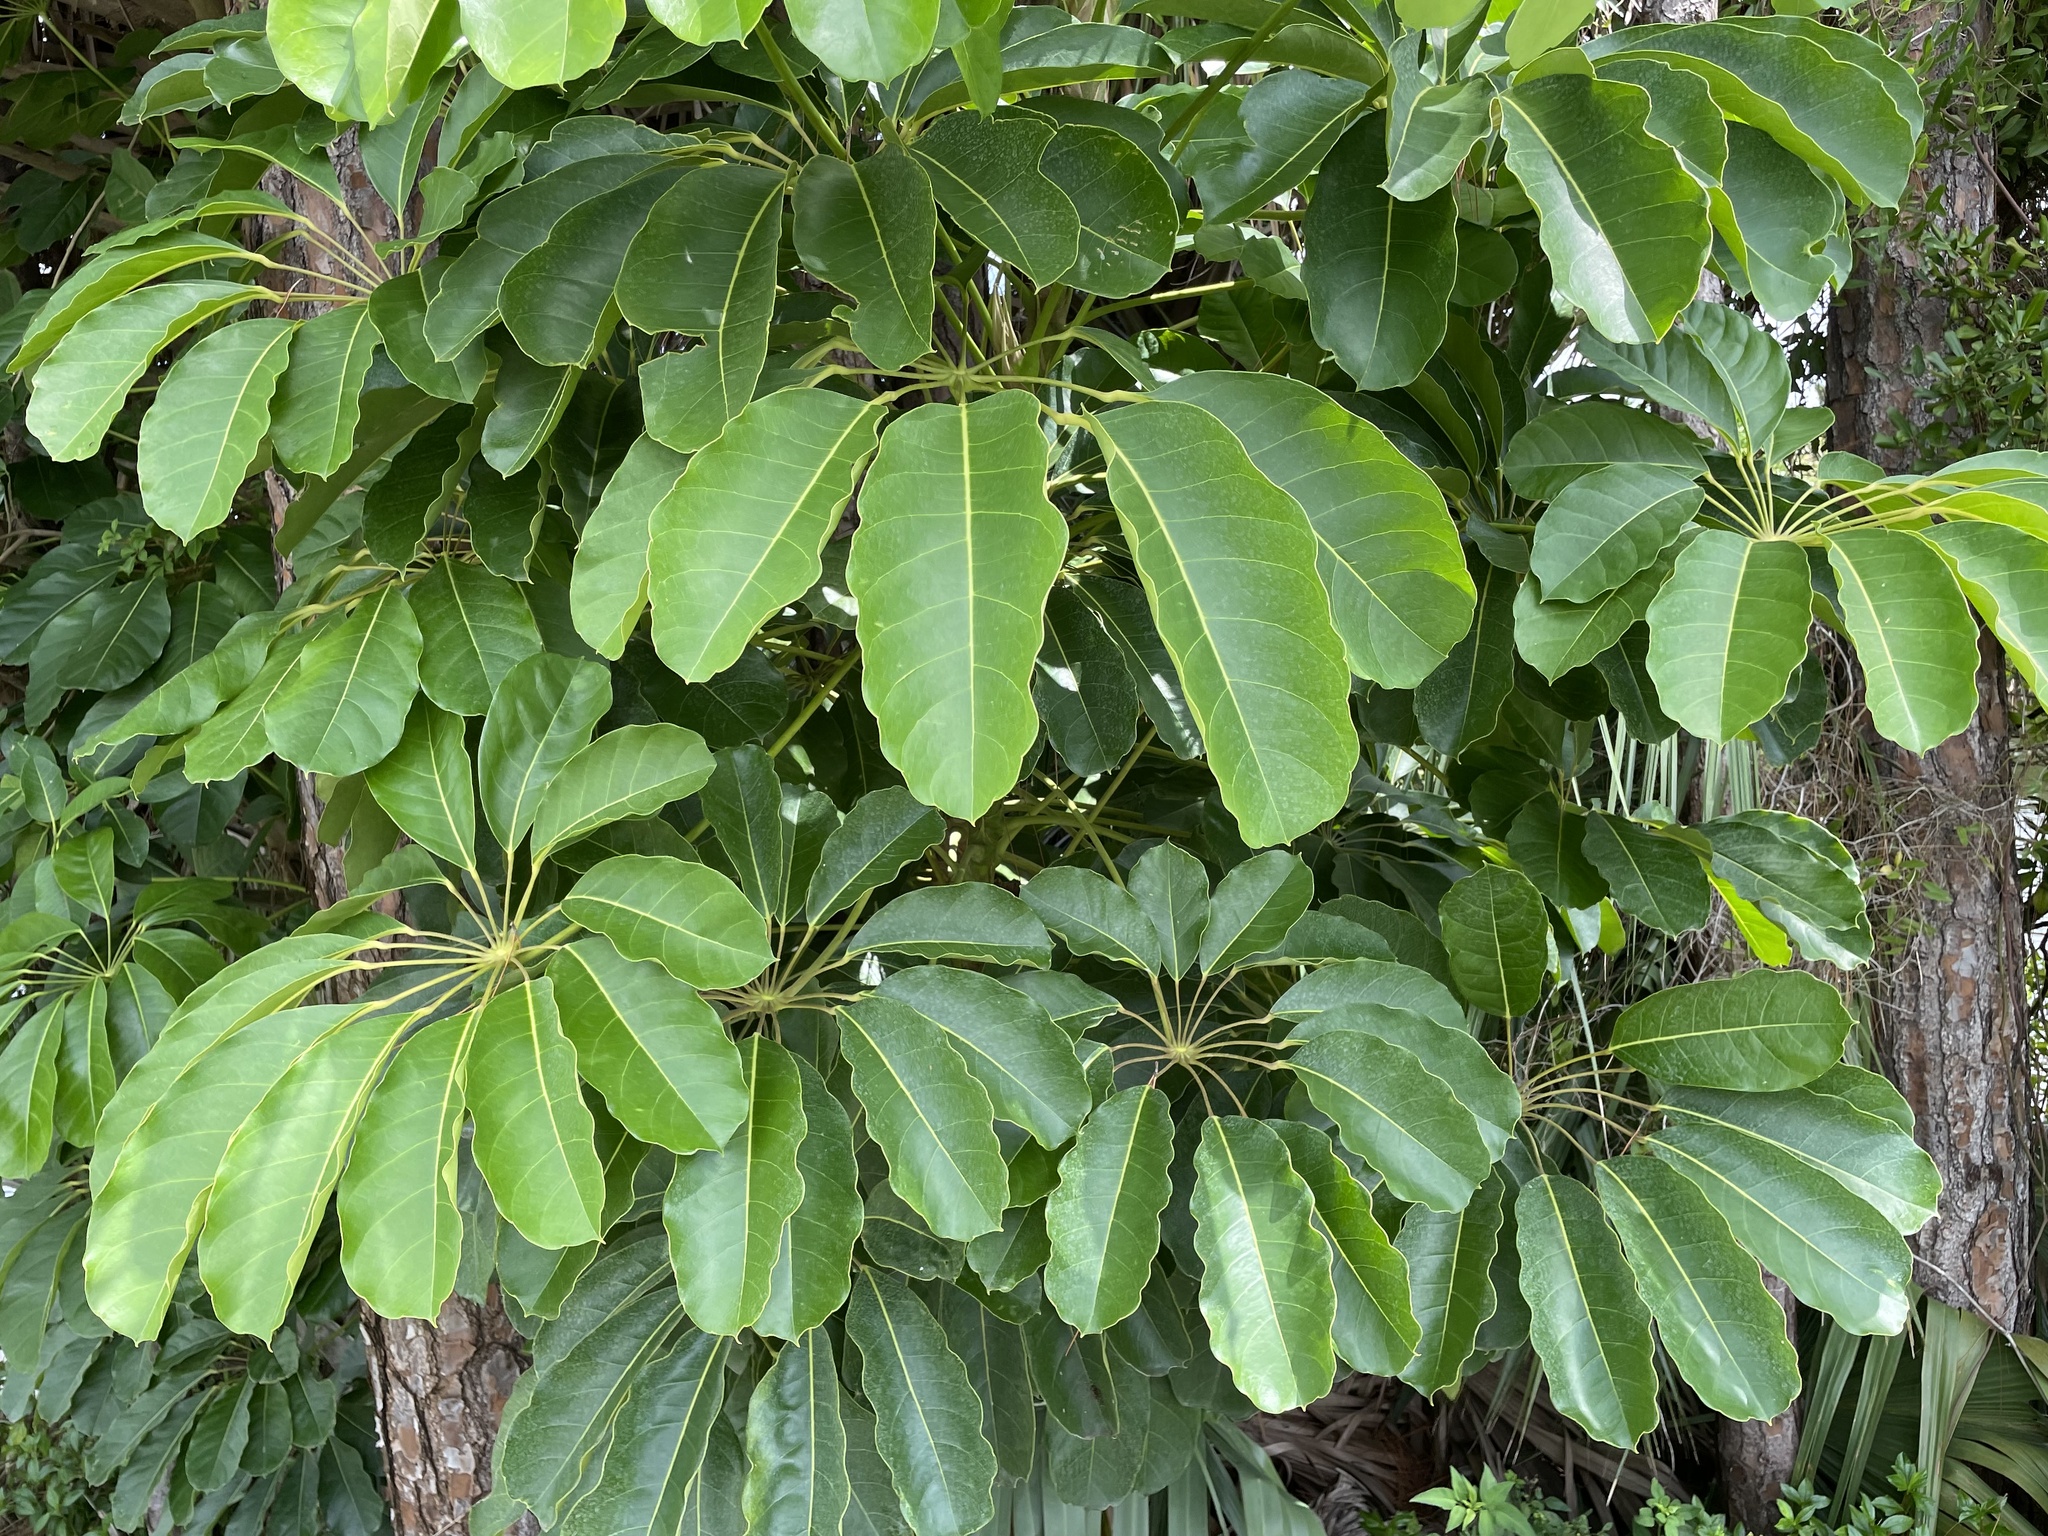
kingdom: Plantae
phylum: Tracheophyta
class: Magnoliopsida
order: Apiales
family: Araliaceae
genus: Heptapleurum
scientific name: Heptapleurum actinophyllum
